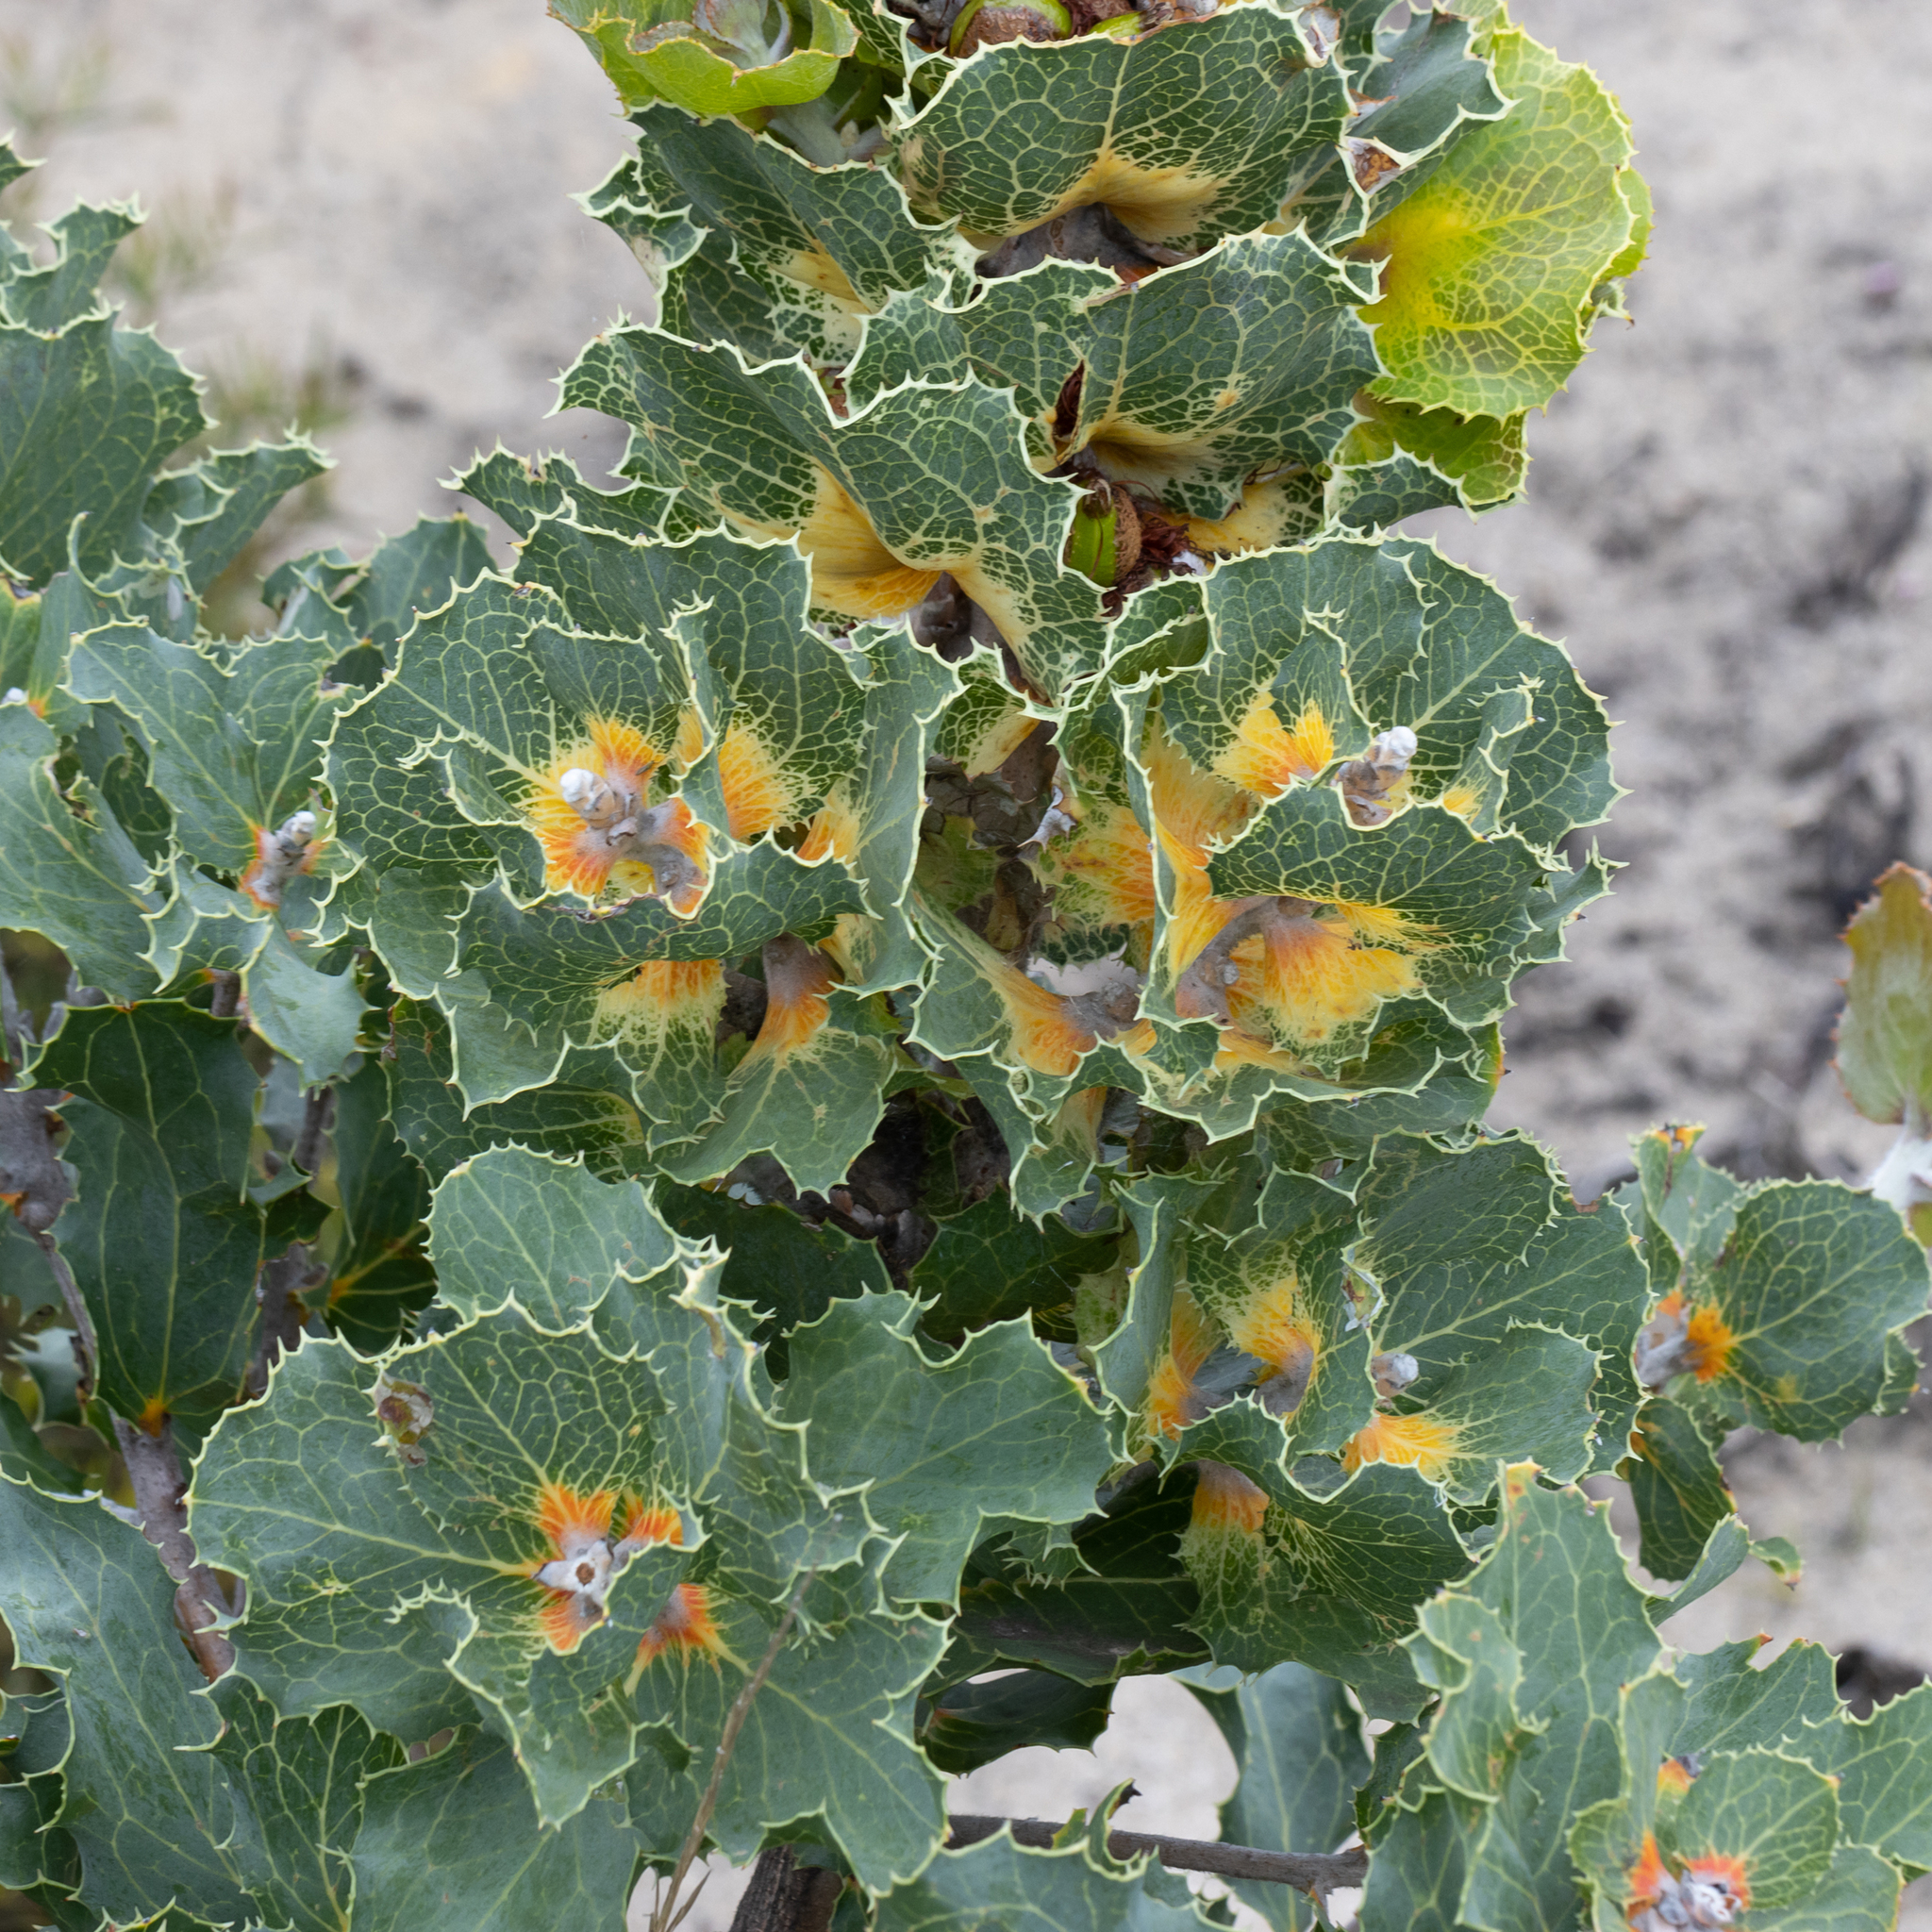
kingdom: Plantae
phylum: Tracheophyta
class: Magnoliopsida
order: Proteales
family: Proteaceae
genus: Hakea
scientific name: Hakea victoria
